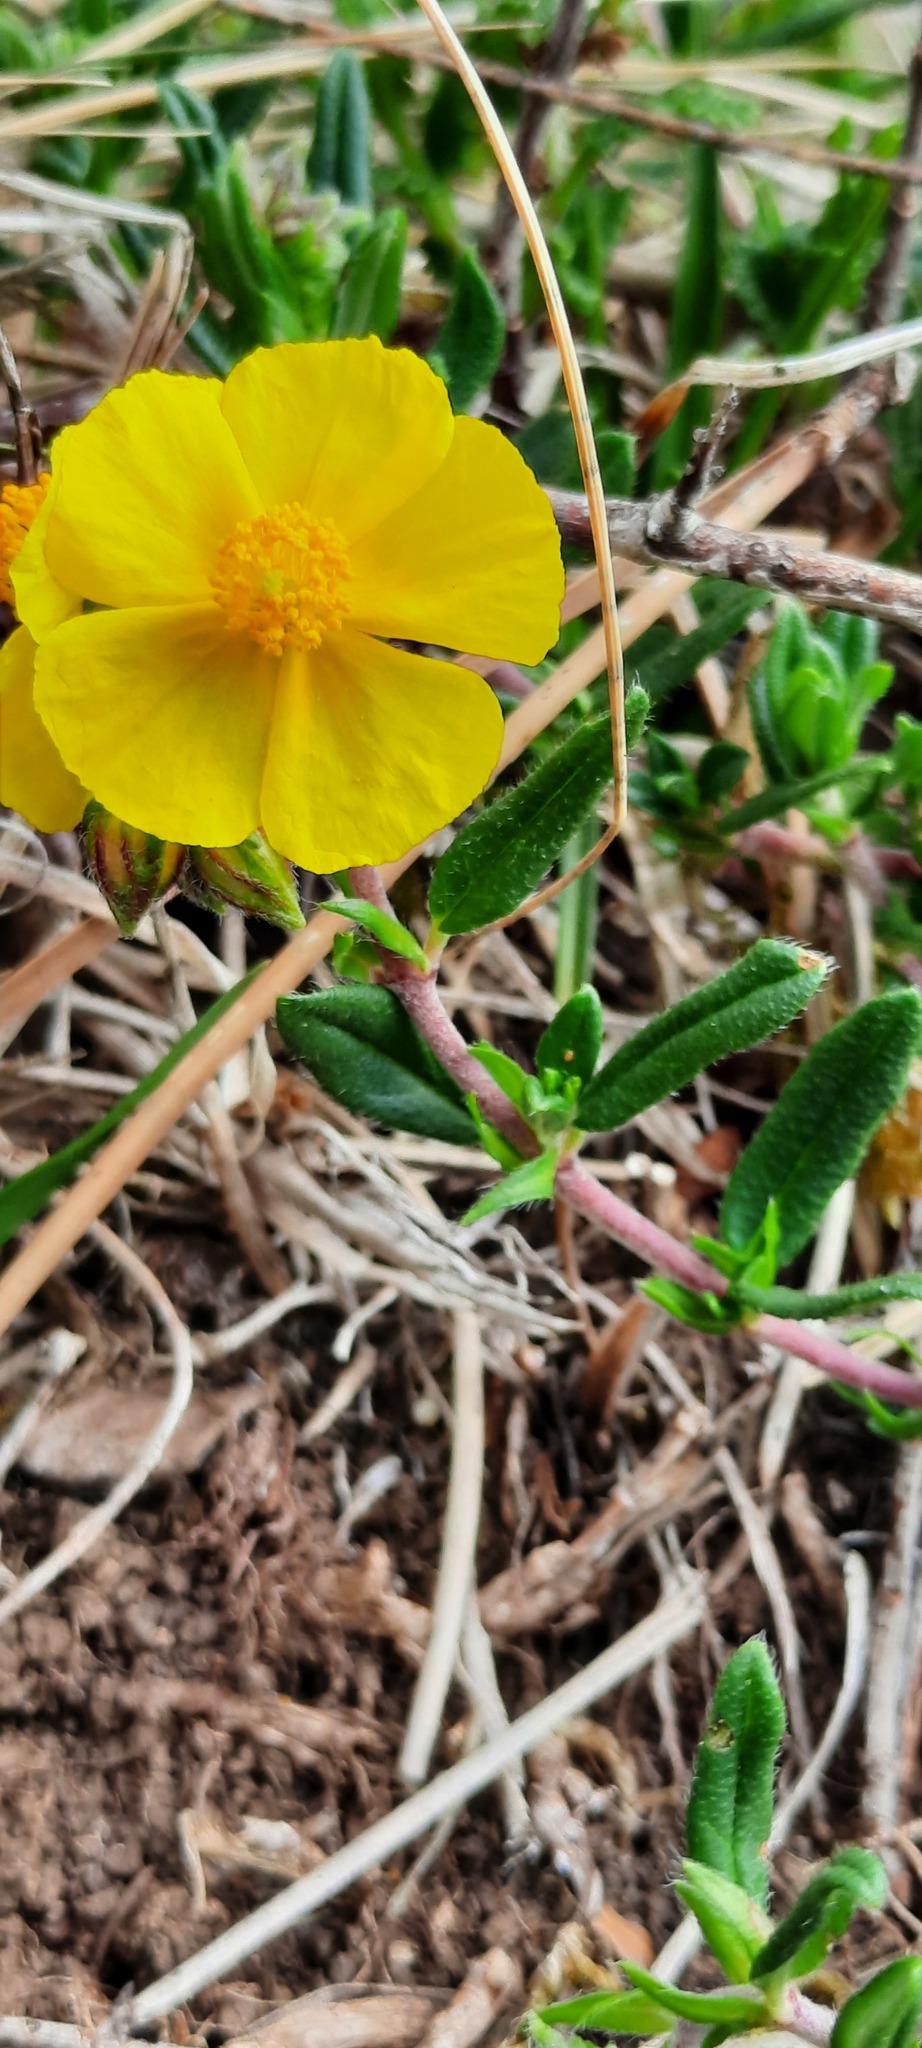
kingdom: Plantae
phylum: Tracheophyta
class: Magnoliopsida
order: Malvales
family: Cistaceae
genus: Helianthemum
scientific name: Helianthemum nummularium
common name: Common rock-rose
